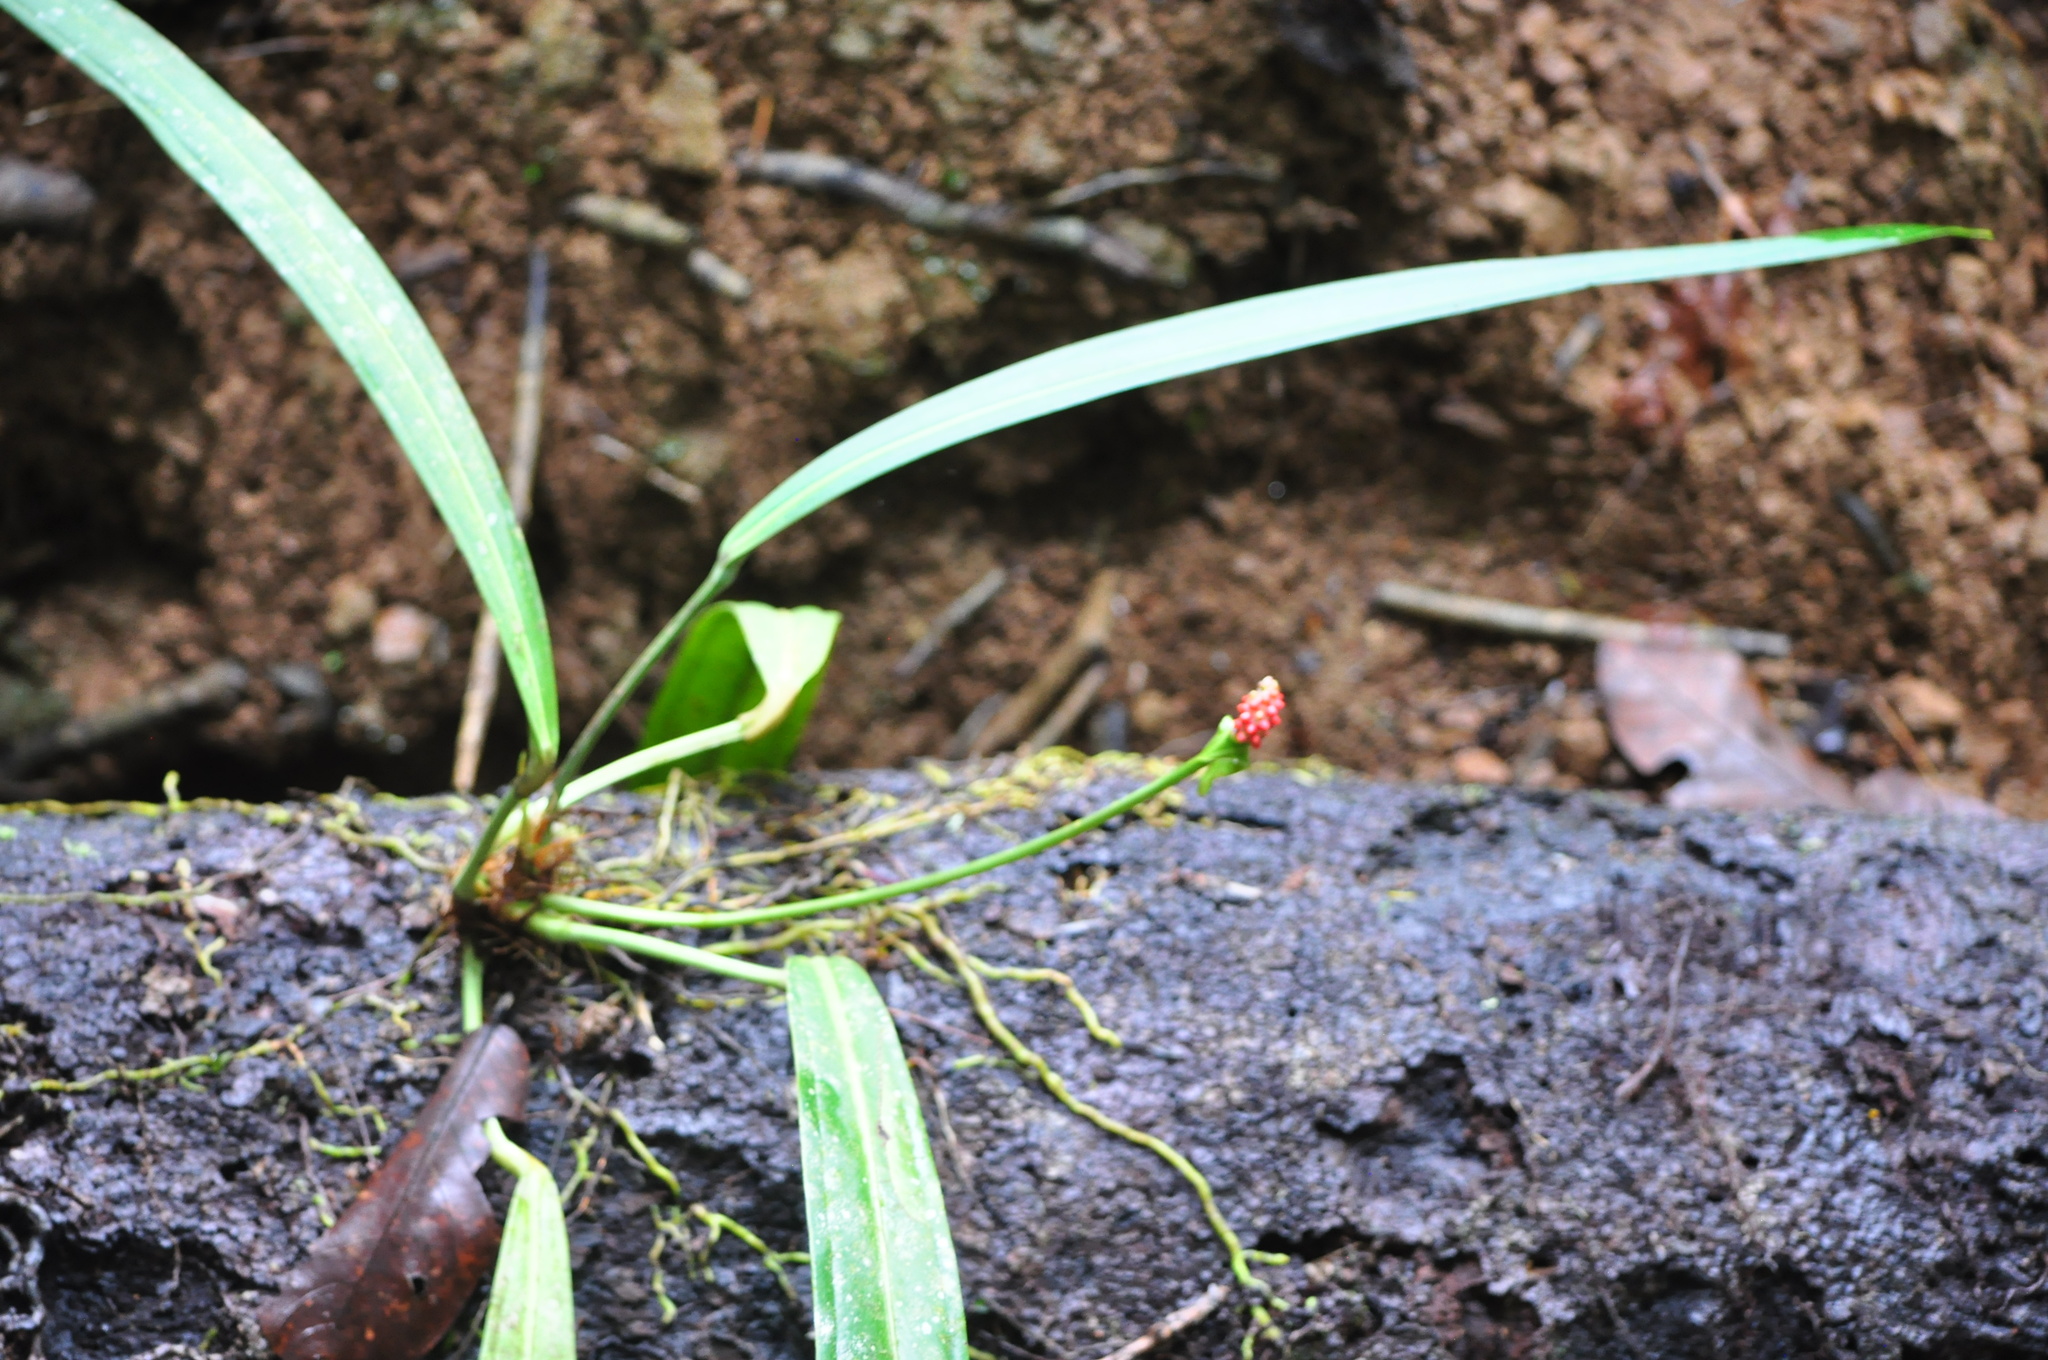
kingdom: Plantae
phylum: Tracheophyta
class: Liliopsida
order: Alismatales
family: Araceae
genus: Anthurium
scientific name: Anthurium bakeri
